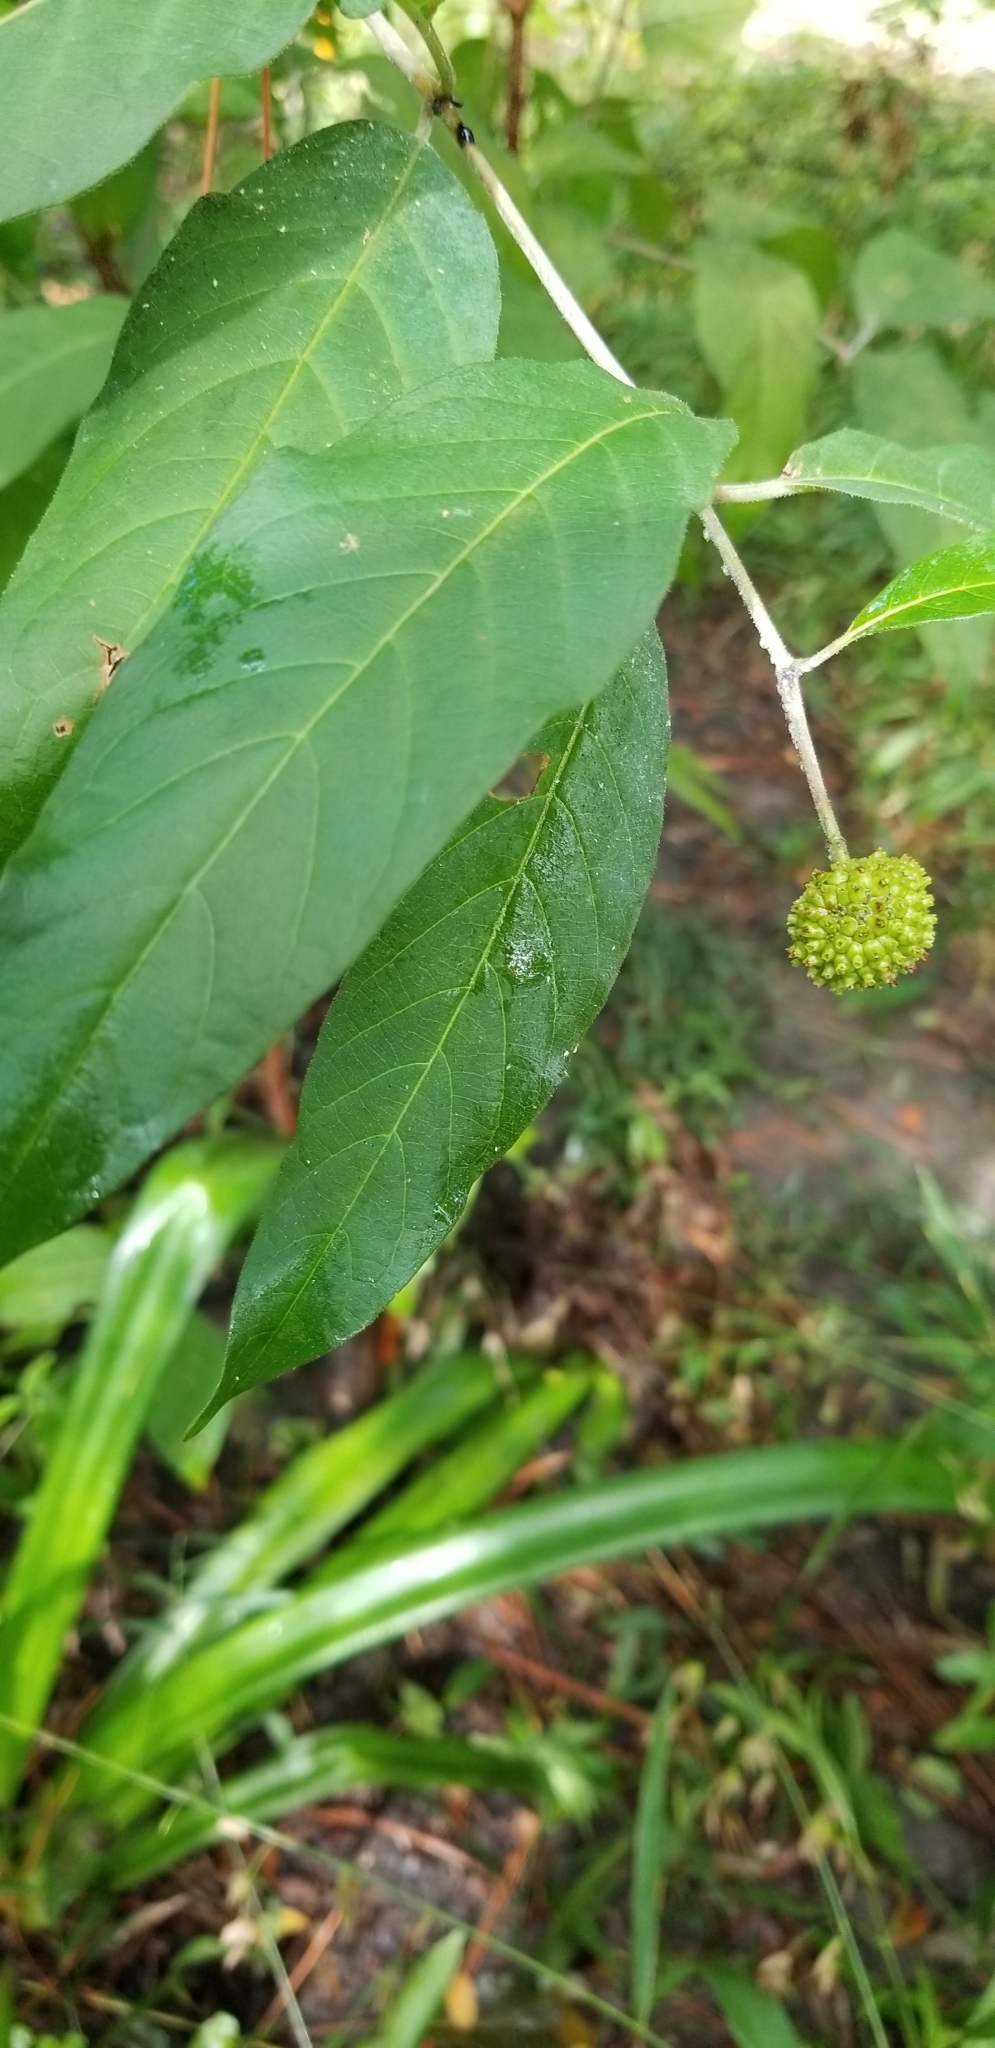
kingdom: Plantae
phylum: Tracheophyta
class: Magnoliopsida
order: Gentianales
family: Rubiaceae
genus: Cephalanthus
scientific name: Cephalanthus occidentalis
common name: Button-willow
